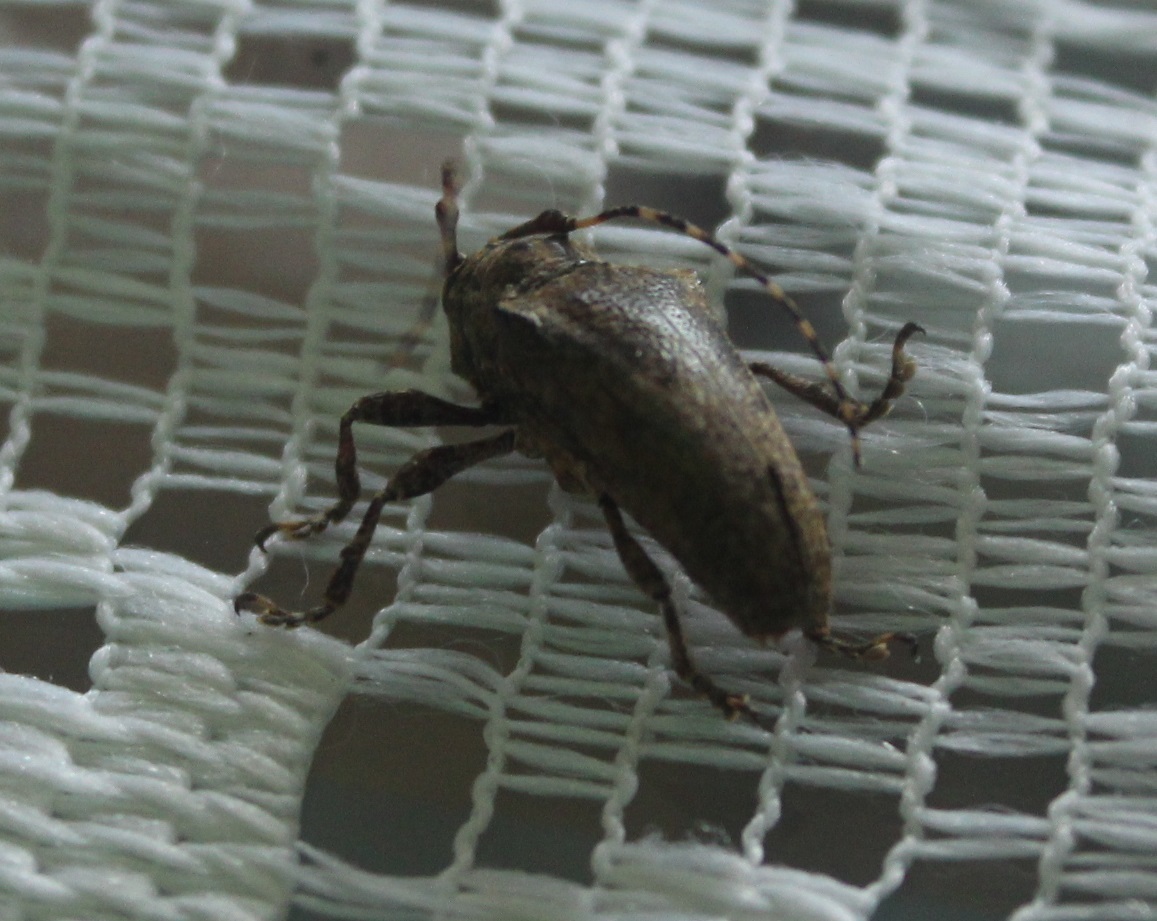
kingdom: Animalia
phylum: Arthropoda
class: Insecta
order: Coleoptera
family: Cerambycidae
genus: Tulcus
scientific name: Tulcus
